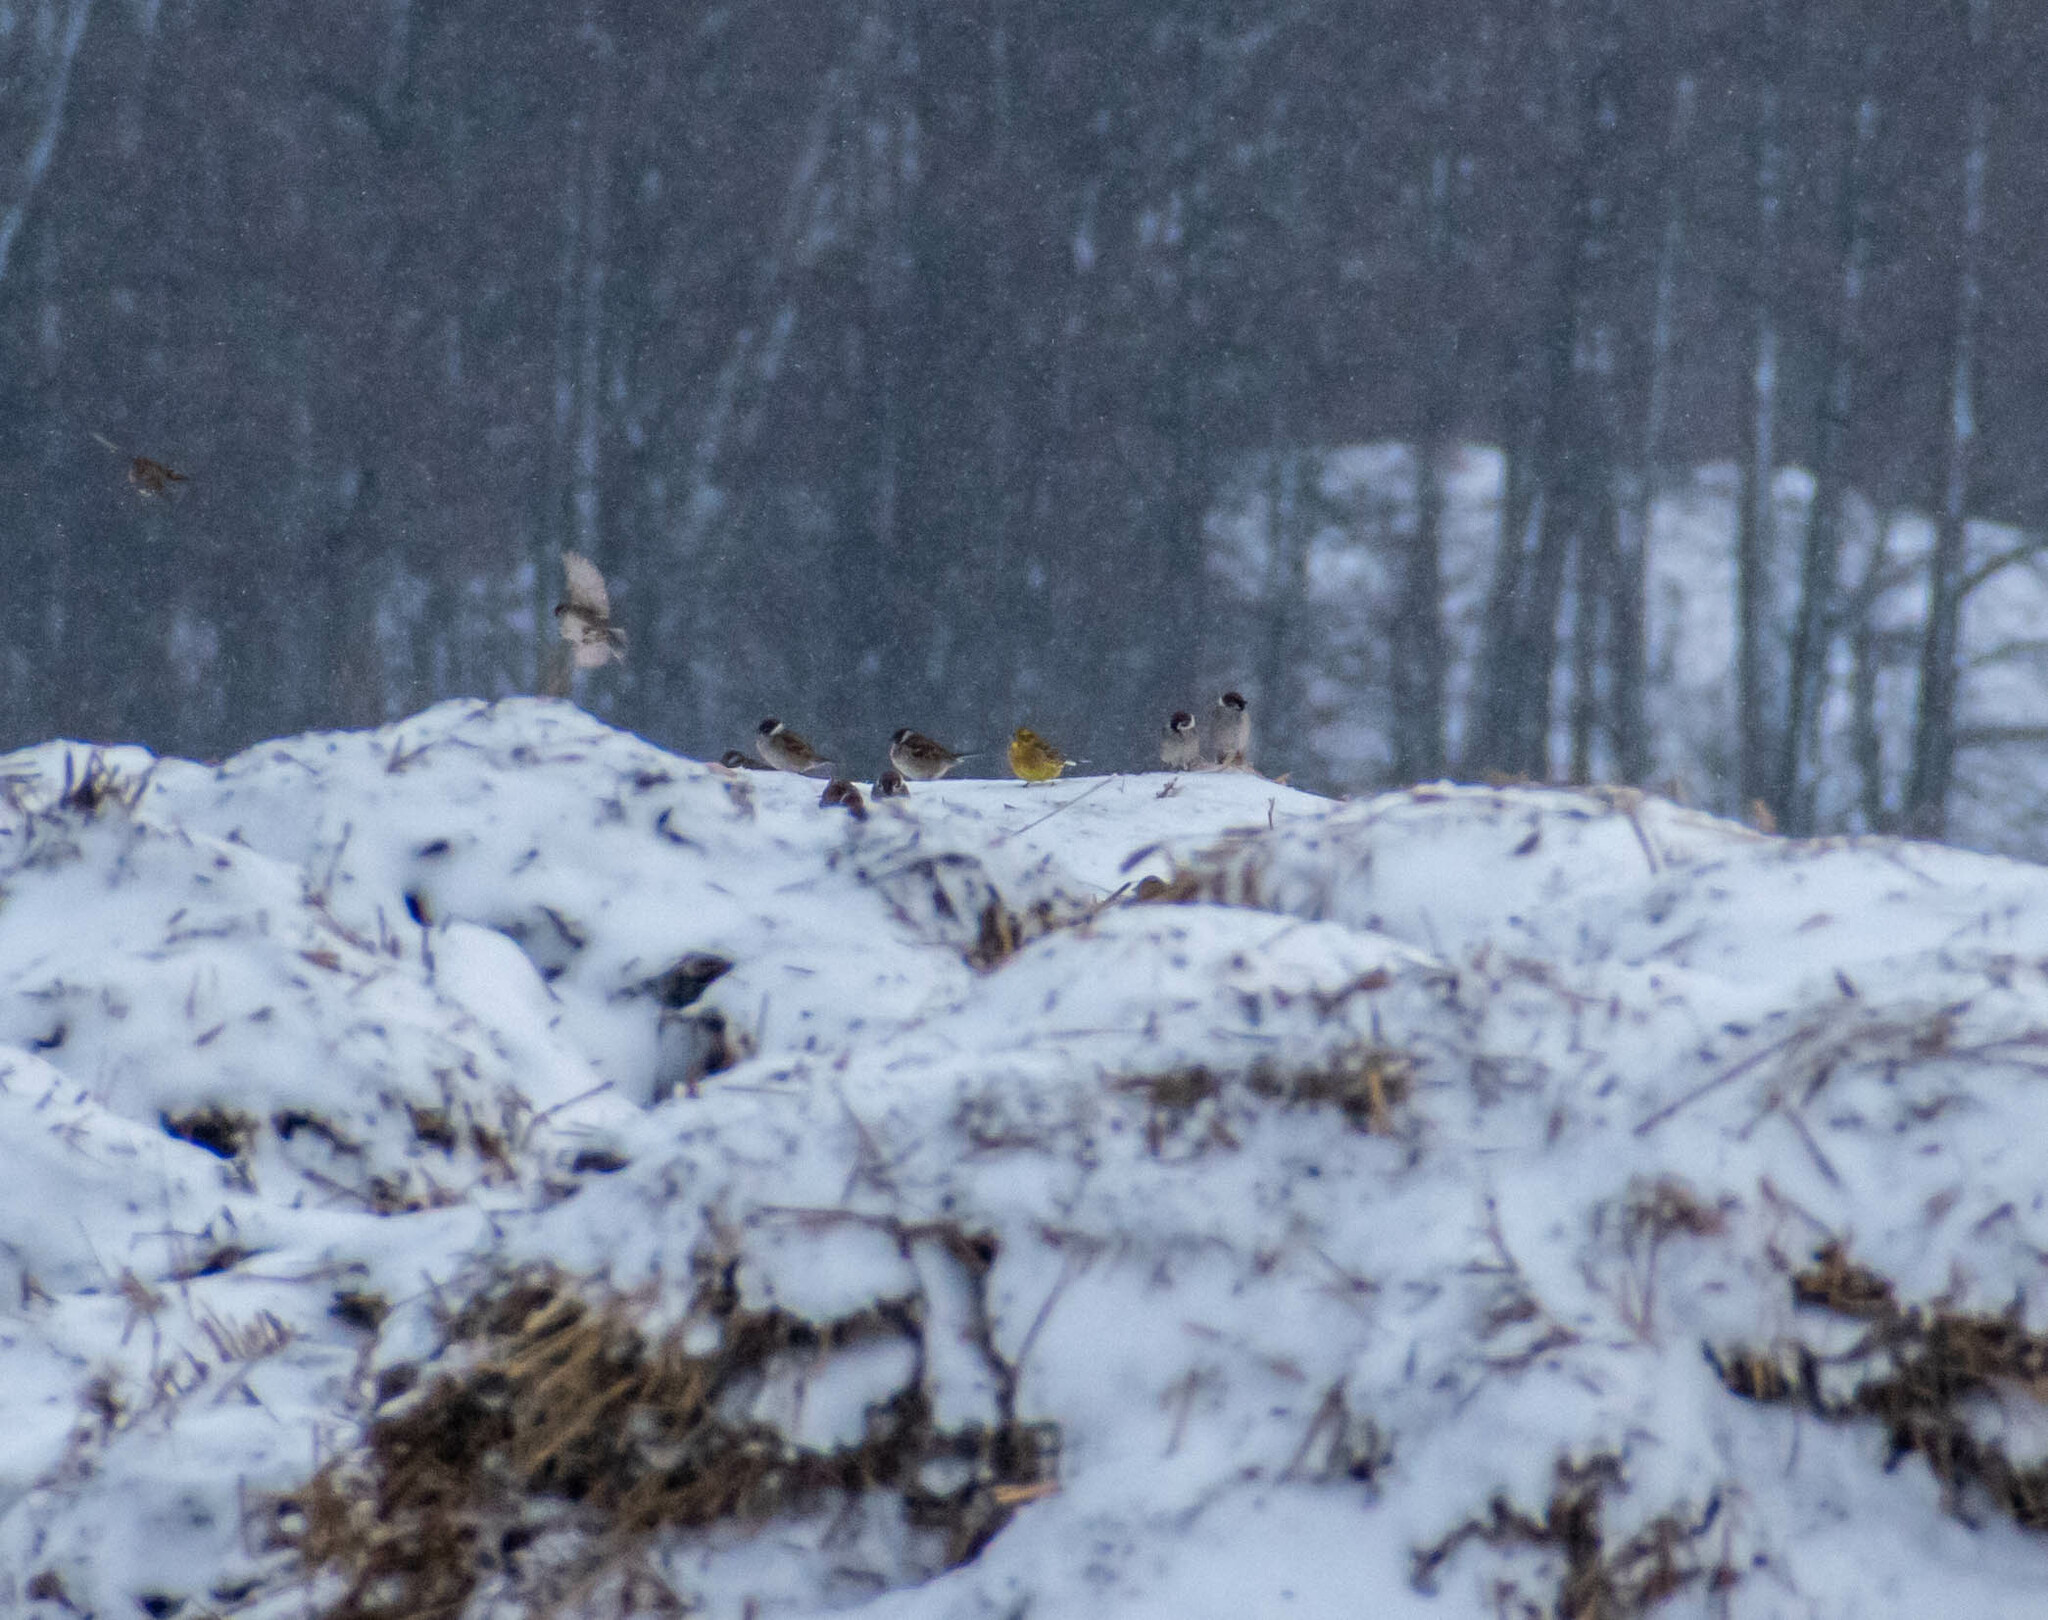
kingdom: Animalia
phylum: Chordata
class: Aves
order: Passeriformes
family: Emberizidae
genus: Emberiza
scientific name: Emberiza citrinella
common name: Yellowhammer
